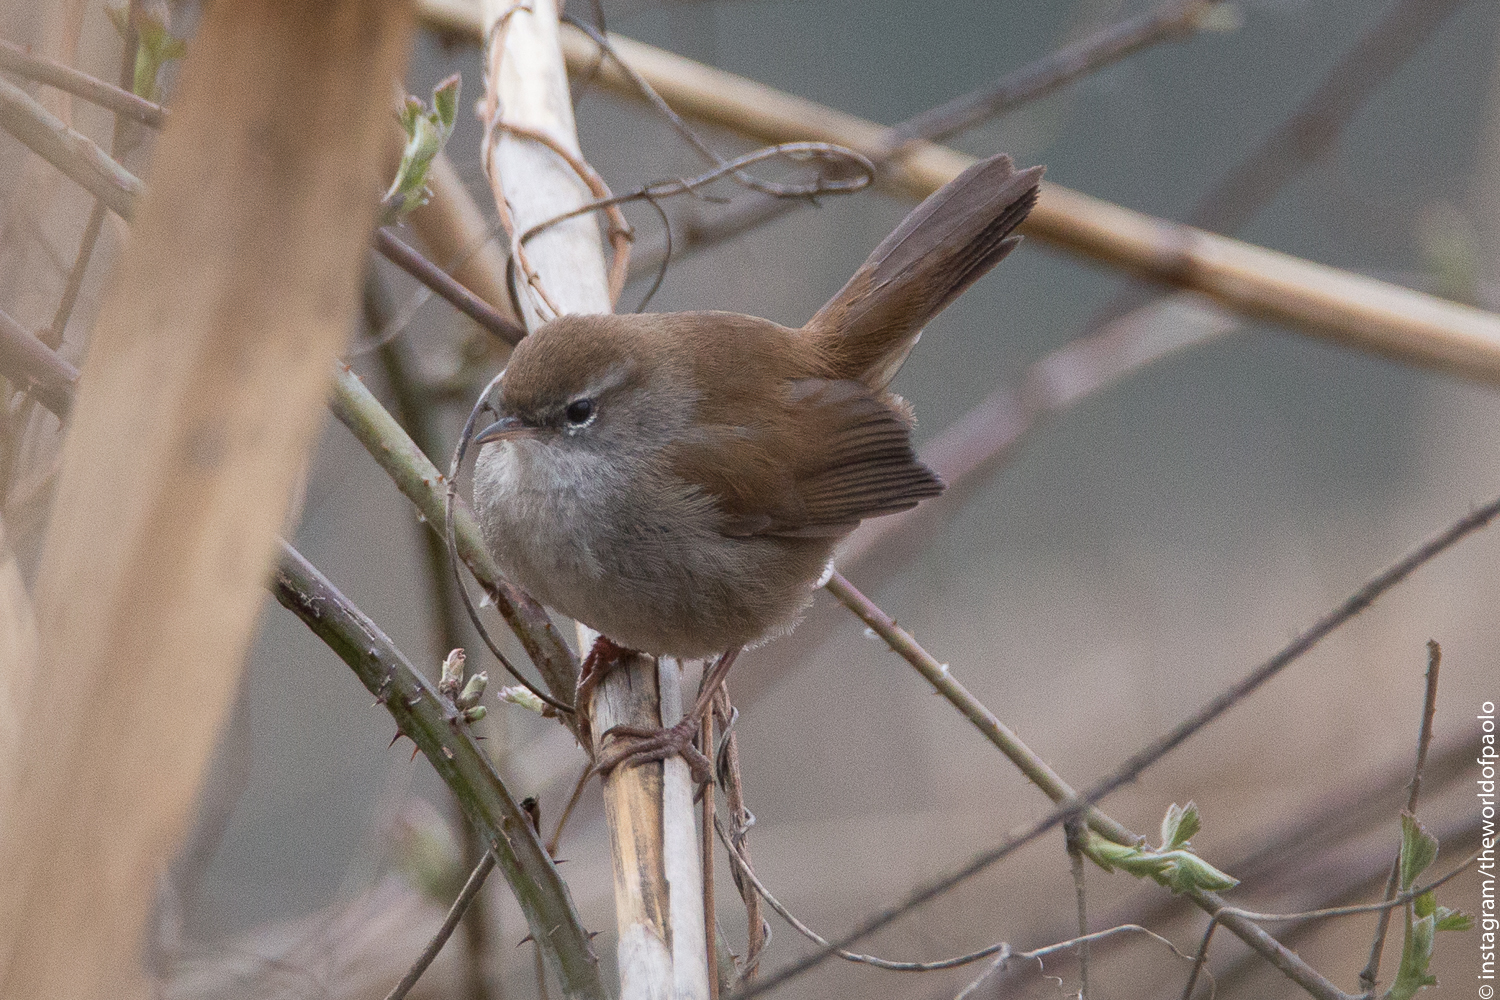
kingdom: Animalia
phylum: Chordata
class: Aves
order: Passeriformes
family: Cettiidae
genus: Cettia
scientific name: Cettia cetti
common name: Cetti's warbler
